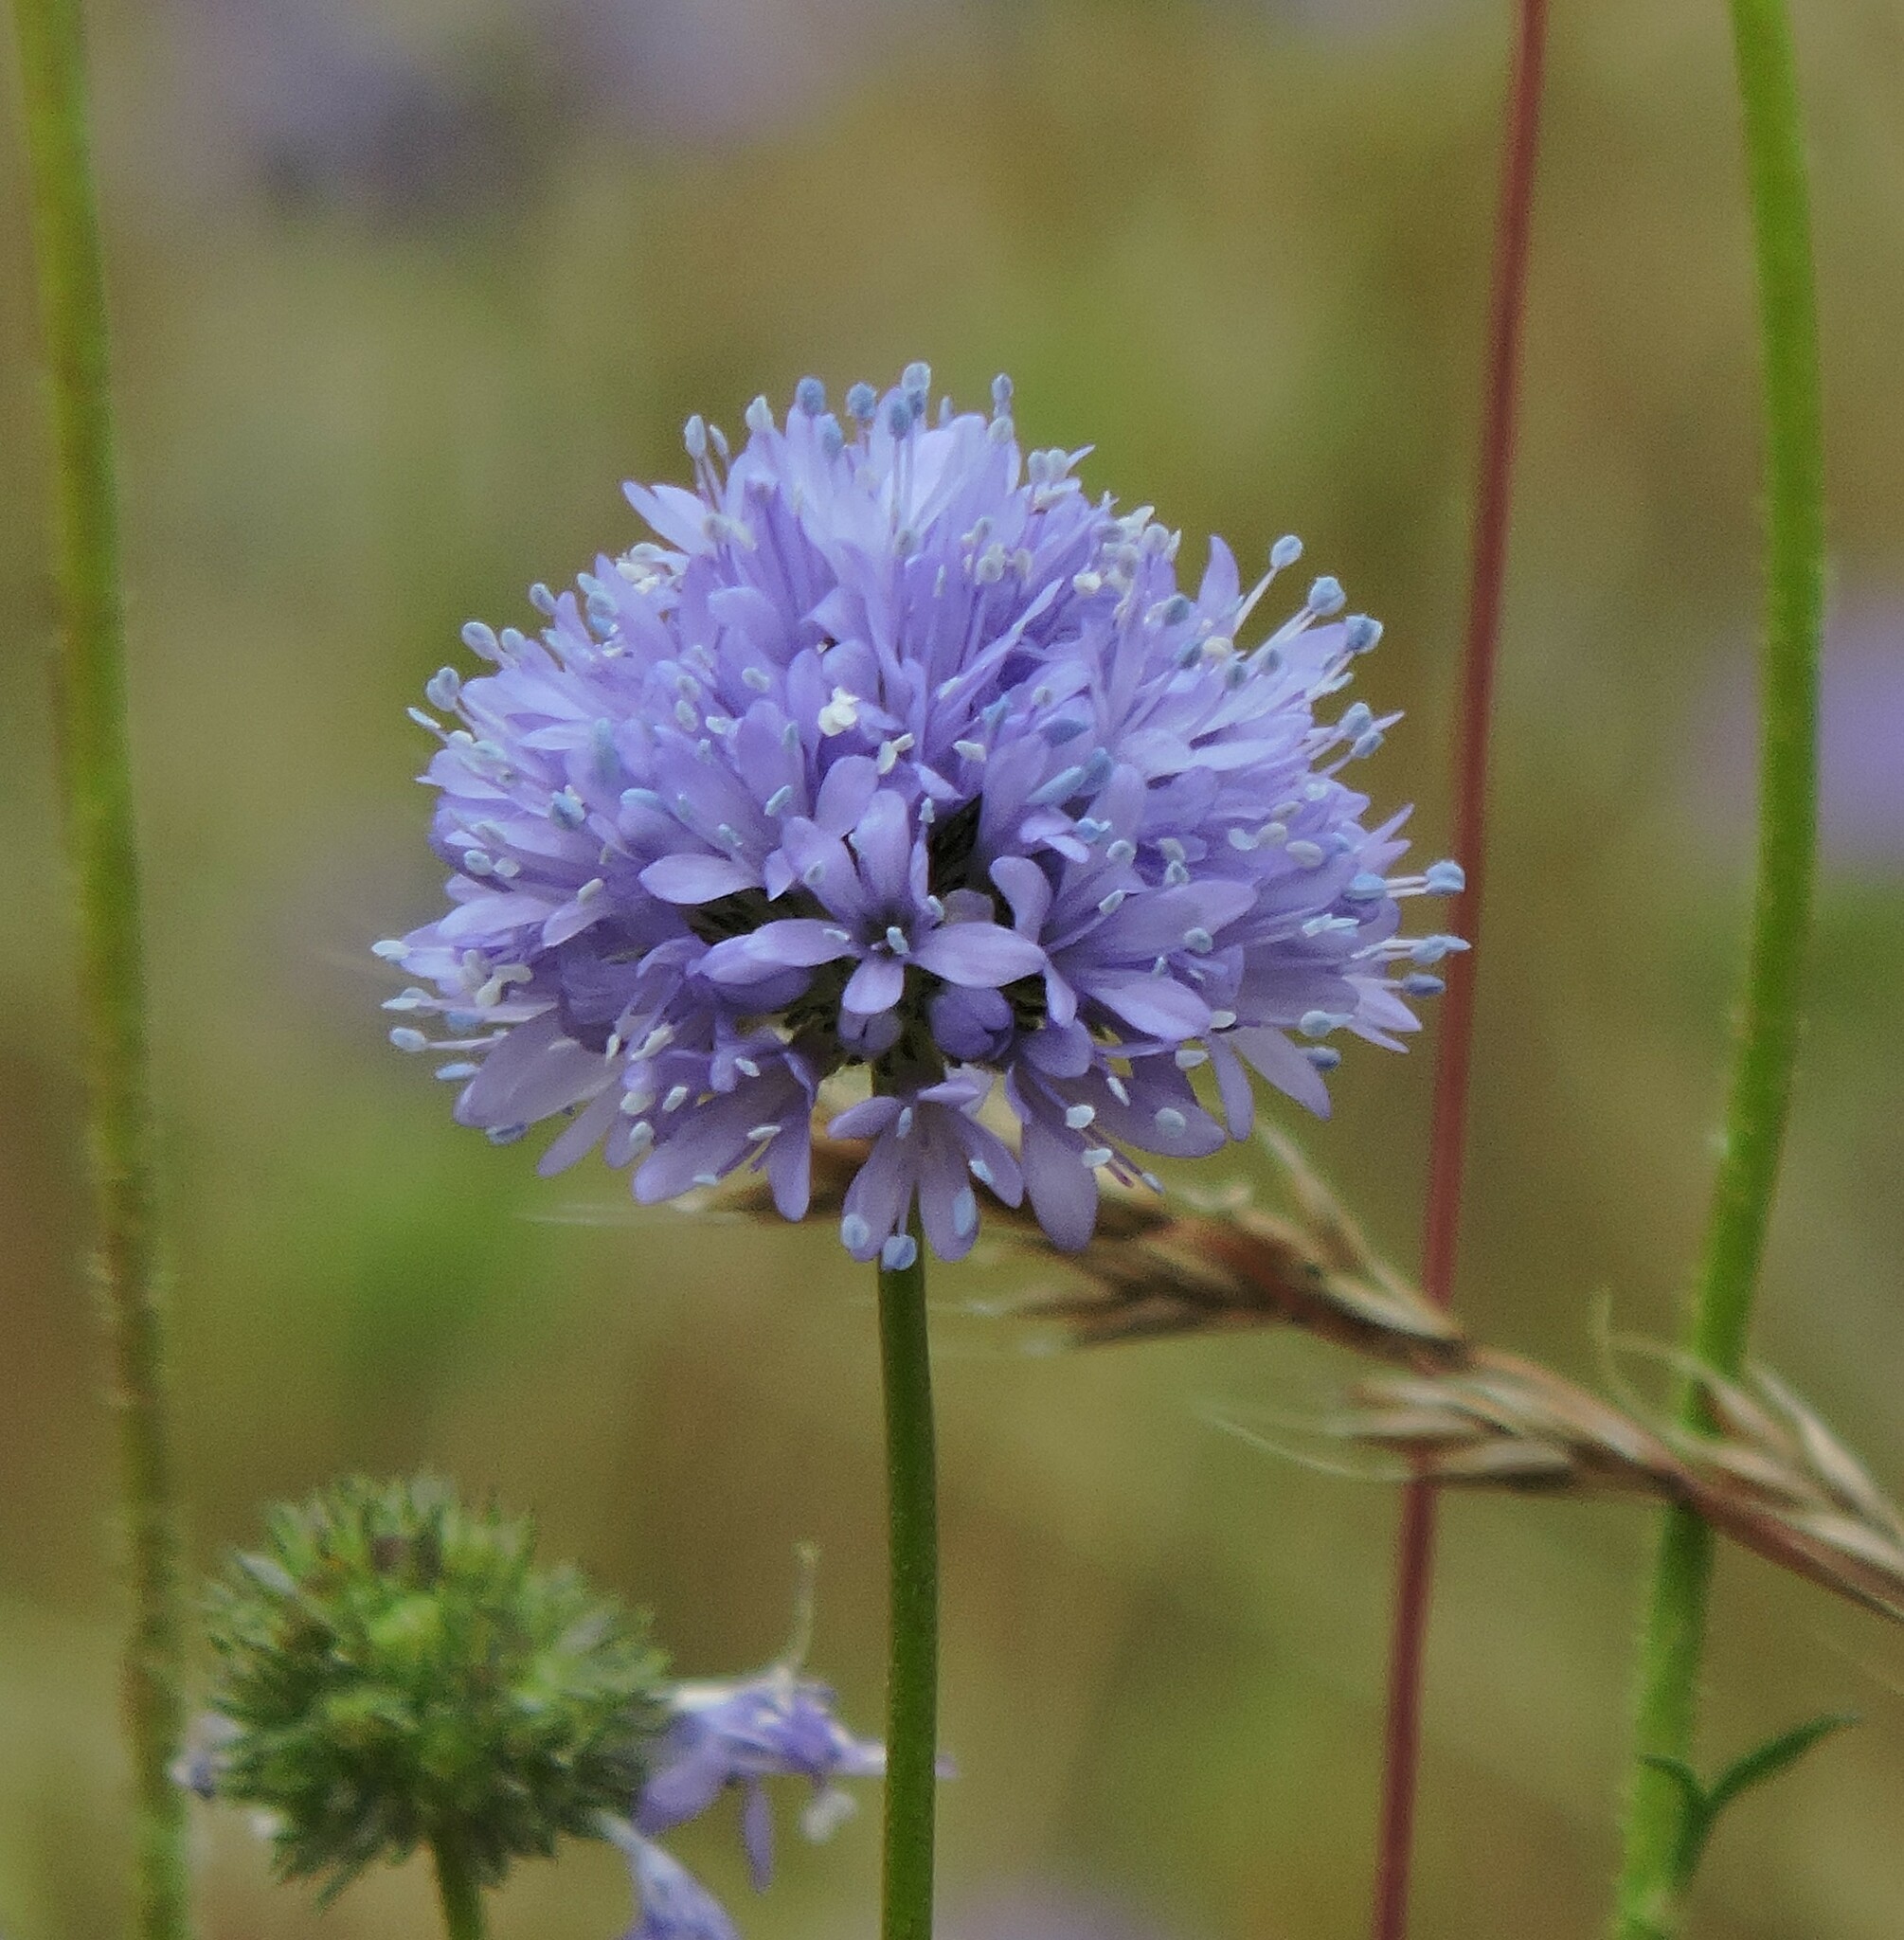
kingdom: Plantae
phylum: Tracheophyta
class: Magnoliopsida
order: Ericales
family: Polemoniaceae
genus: Gilia
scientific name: Gilia capitata
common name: Bluehead gilia
